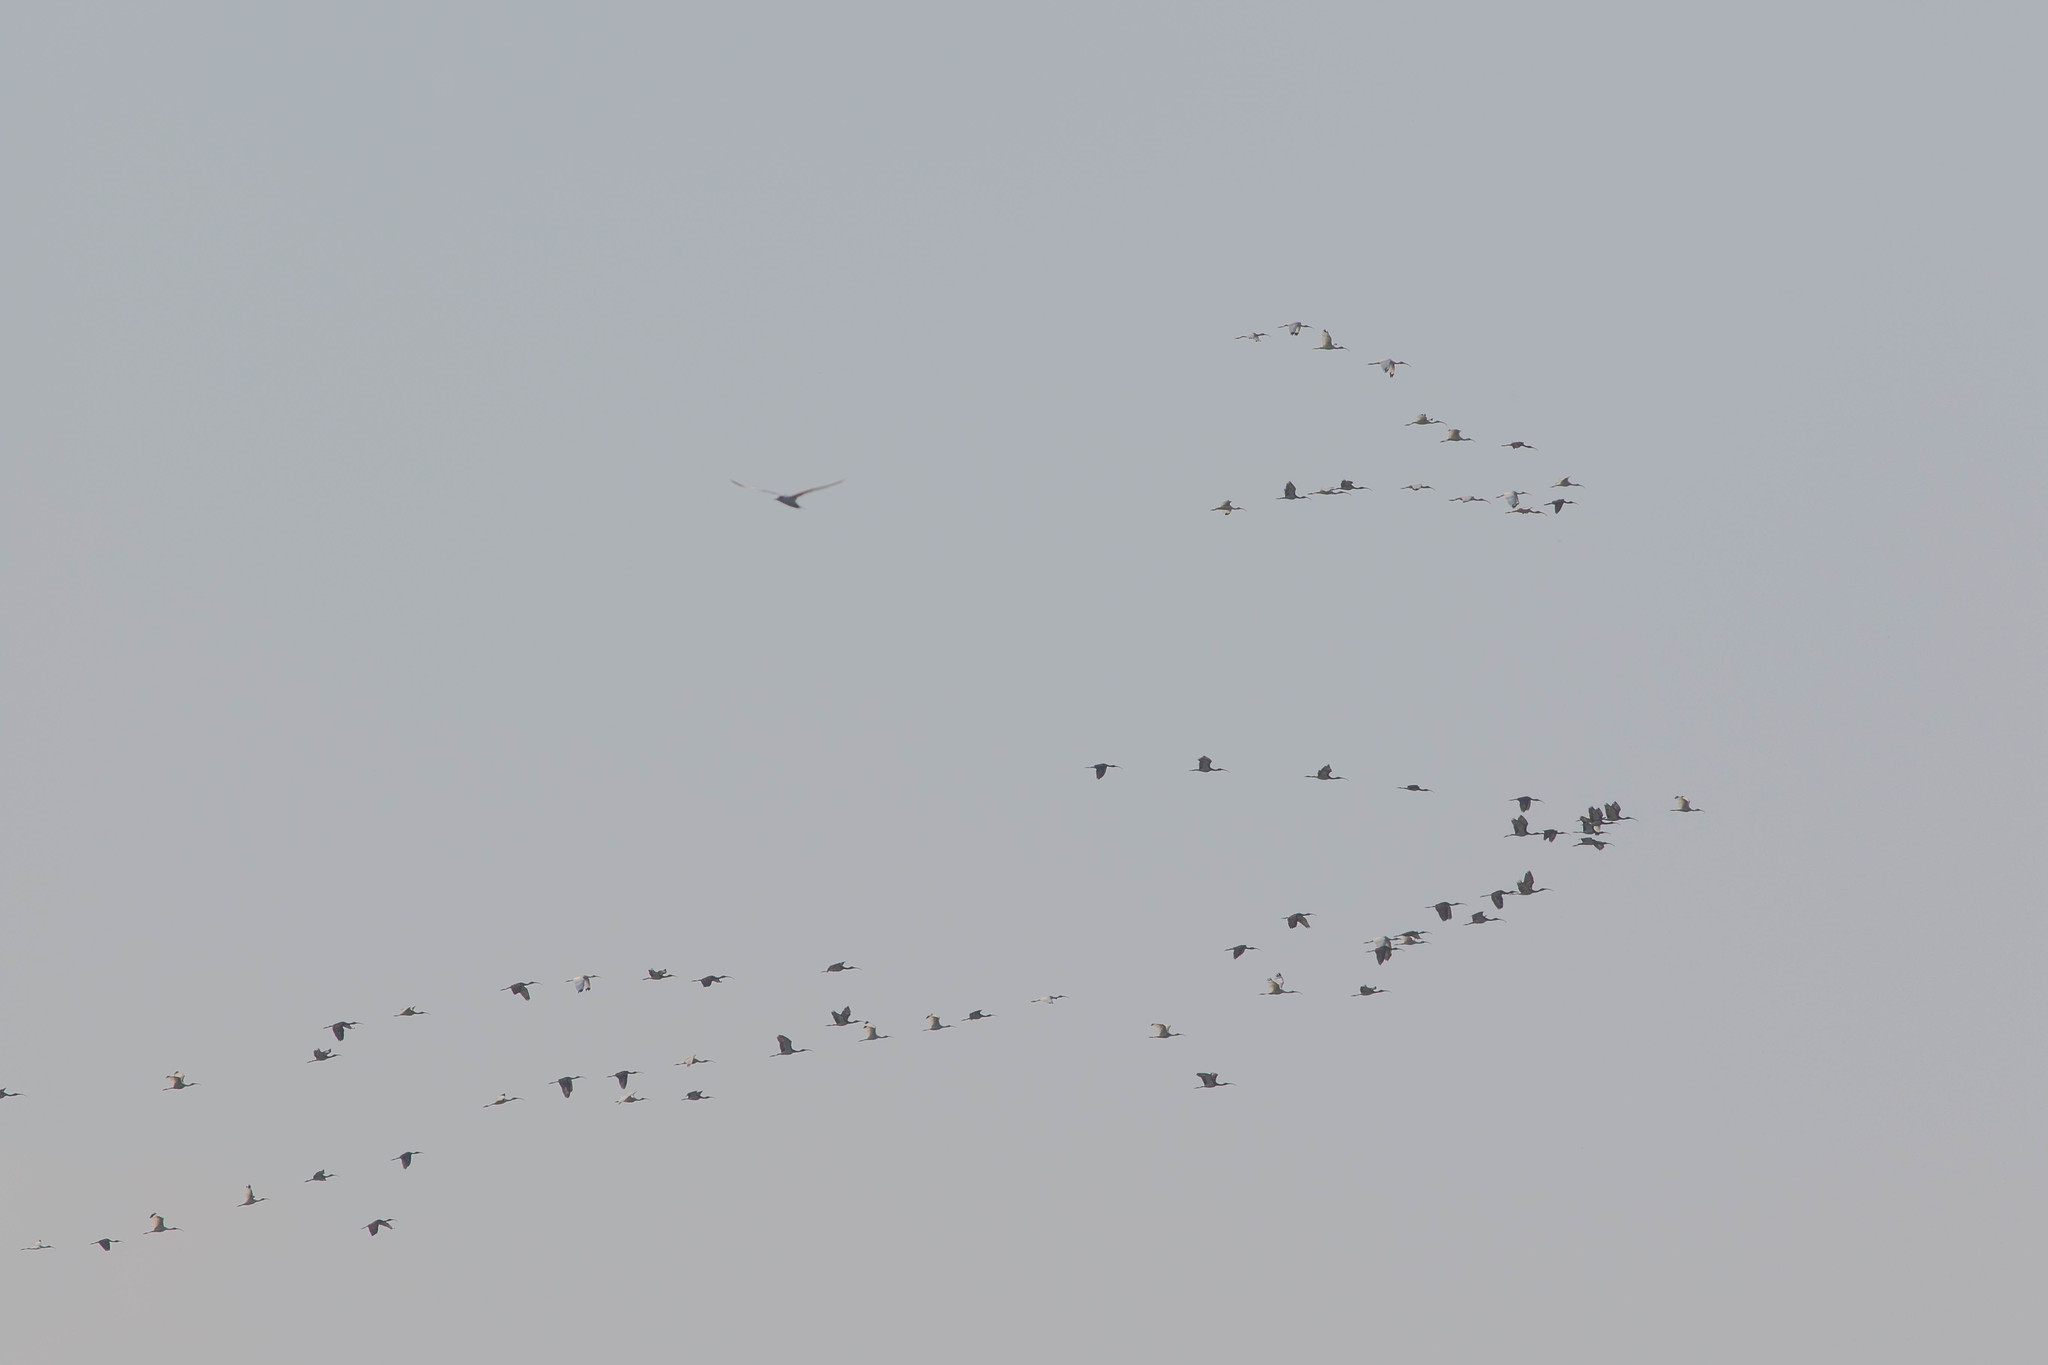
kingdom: Animalia
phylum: Chordata
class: Aves
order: Pelecaniformes
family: Threskiornithidae
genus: Eudocimus
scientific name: Eudocimus albus
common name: White ibis
